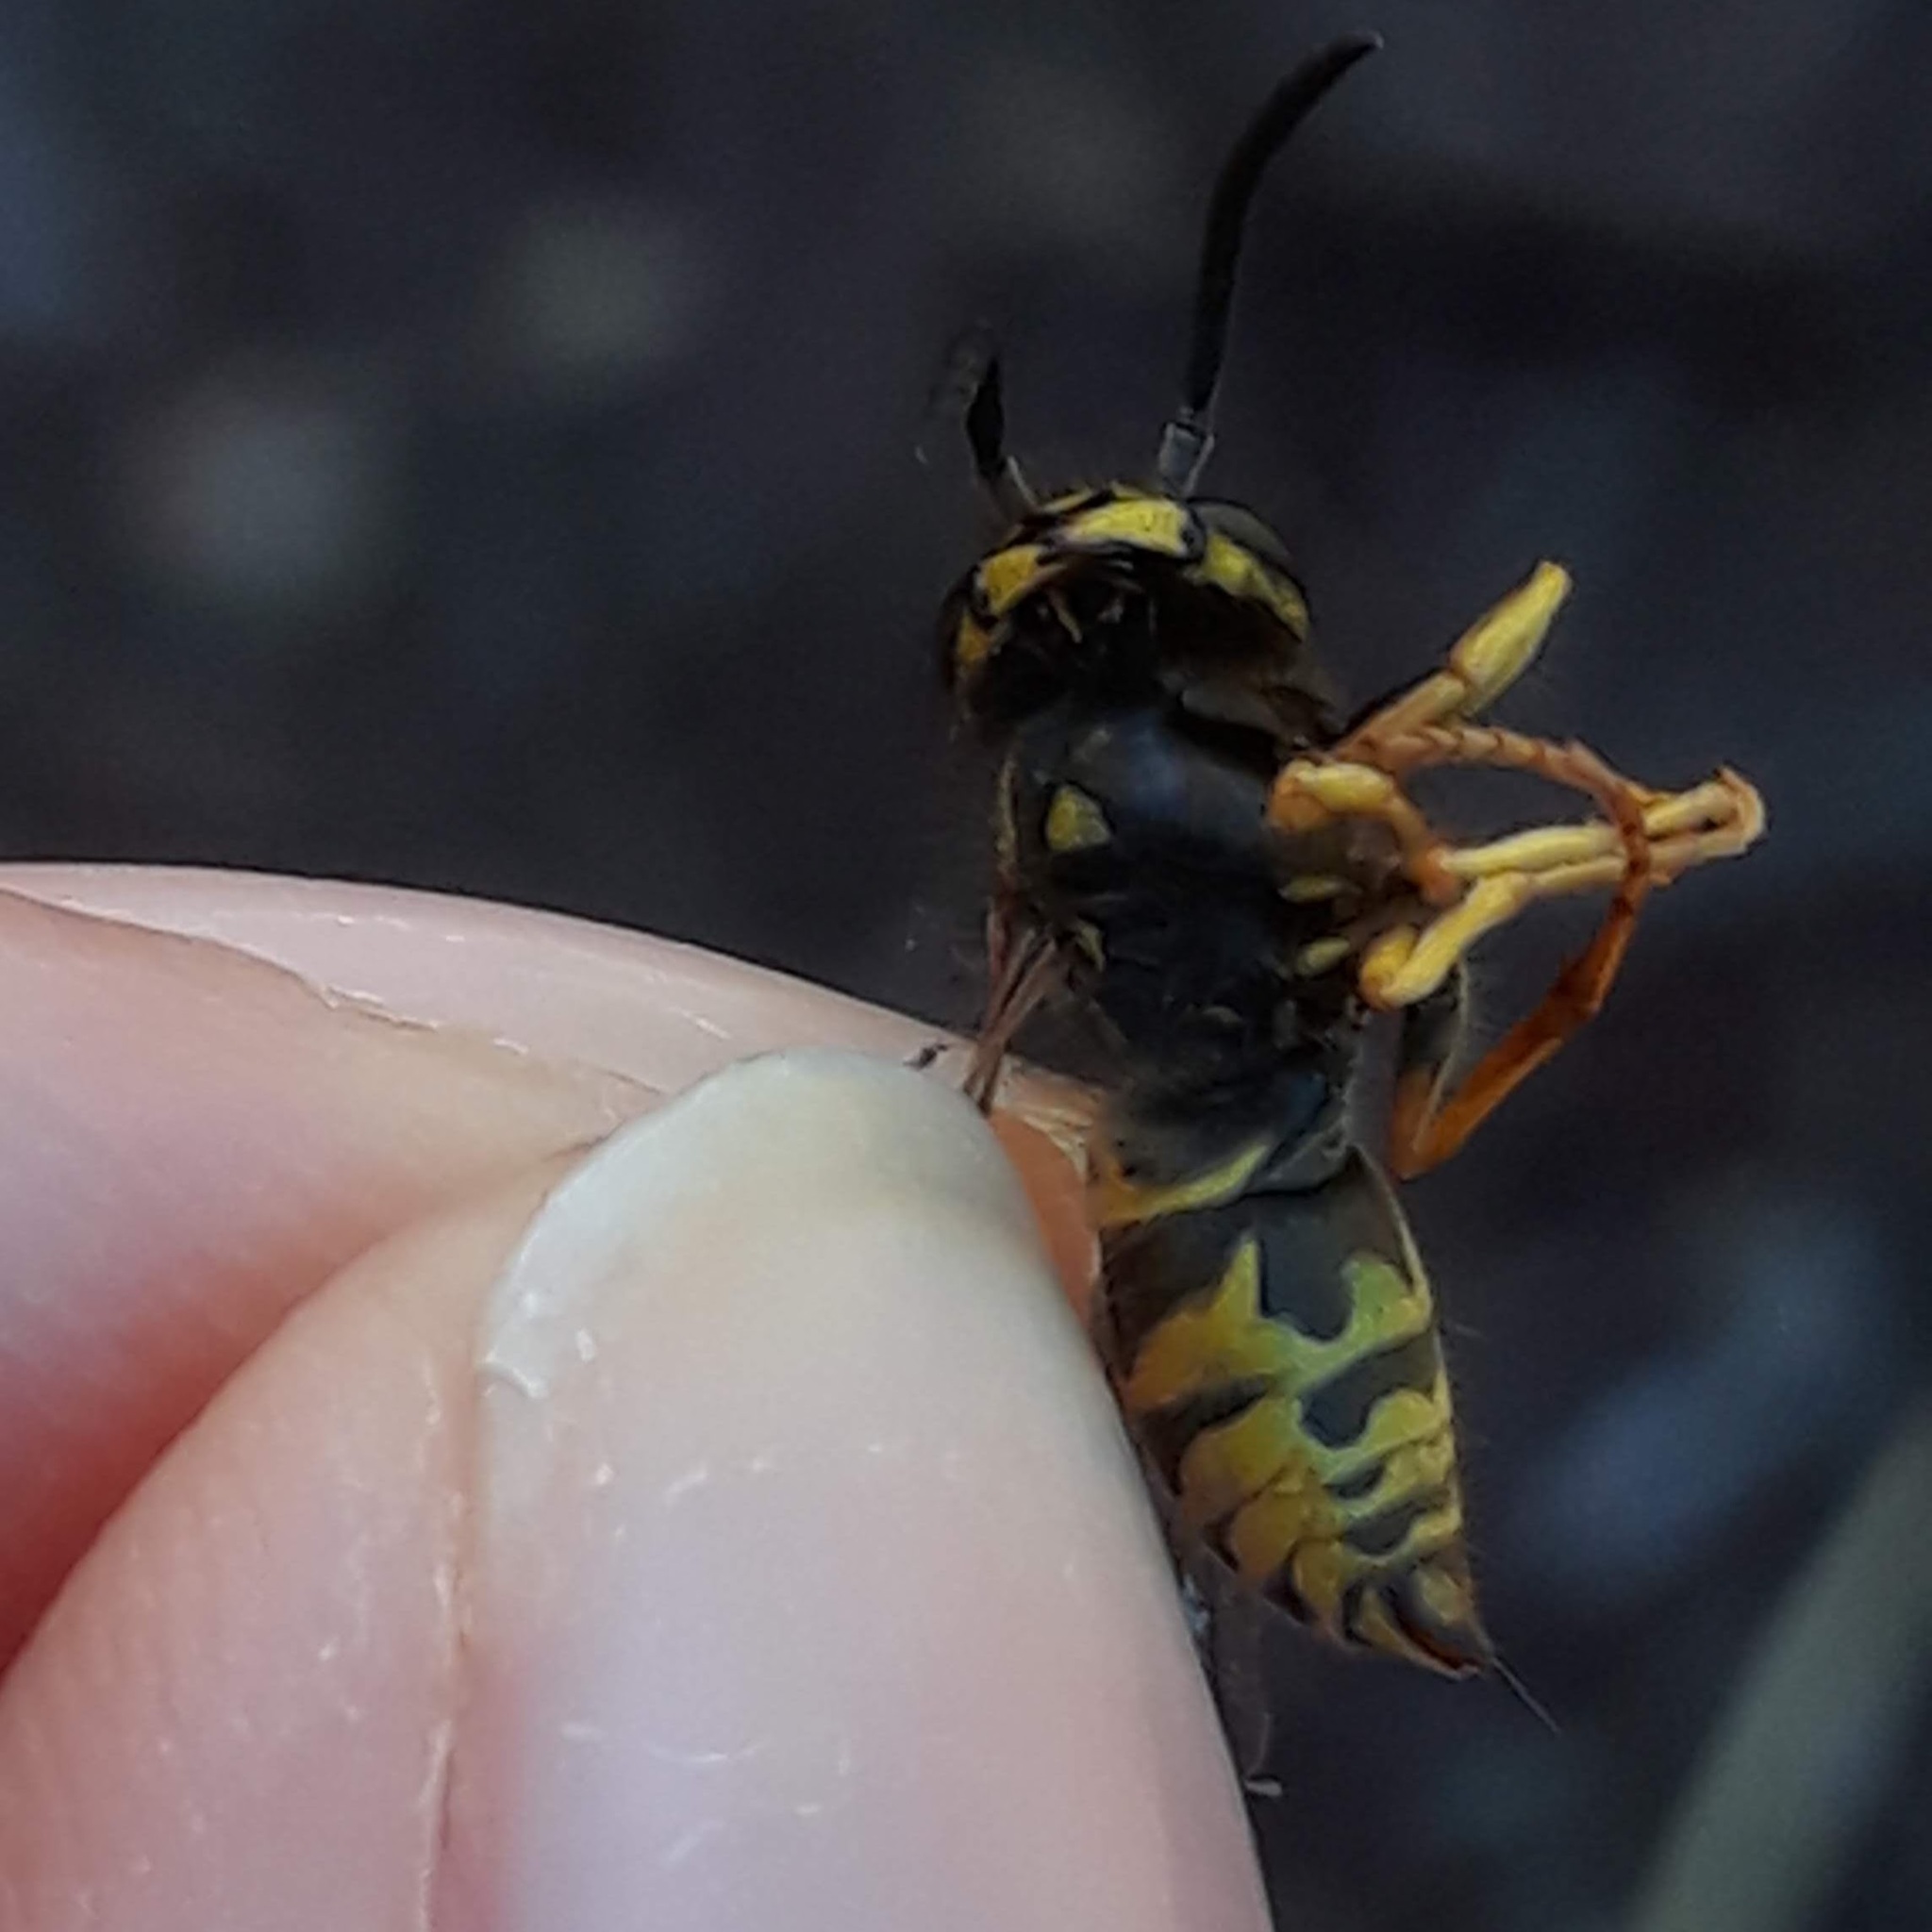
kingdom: Animalia
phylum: Arthropoda
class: Insecta
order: Hymenoptera
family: Vespidae
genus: Vespula
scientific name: Vespula maculifrons
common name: Eastern yellowjacket
